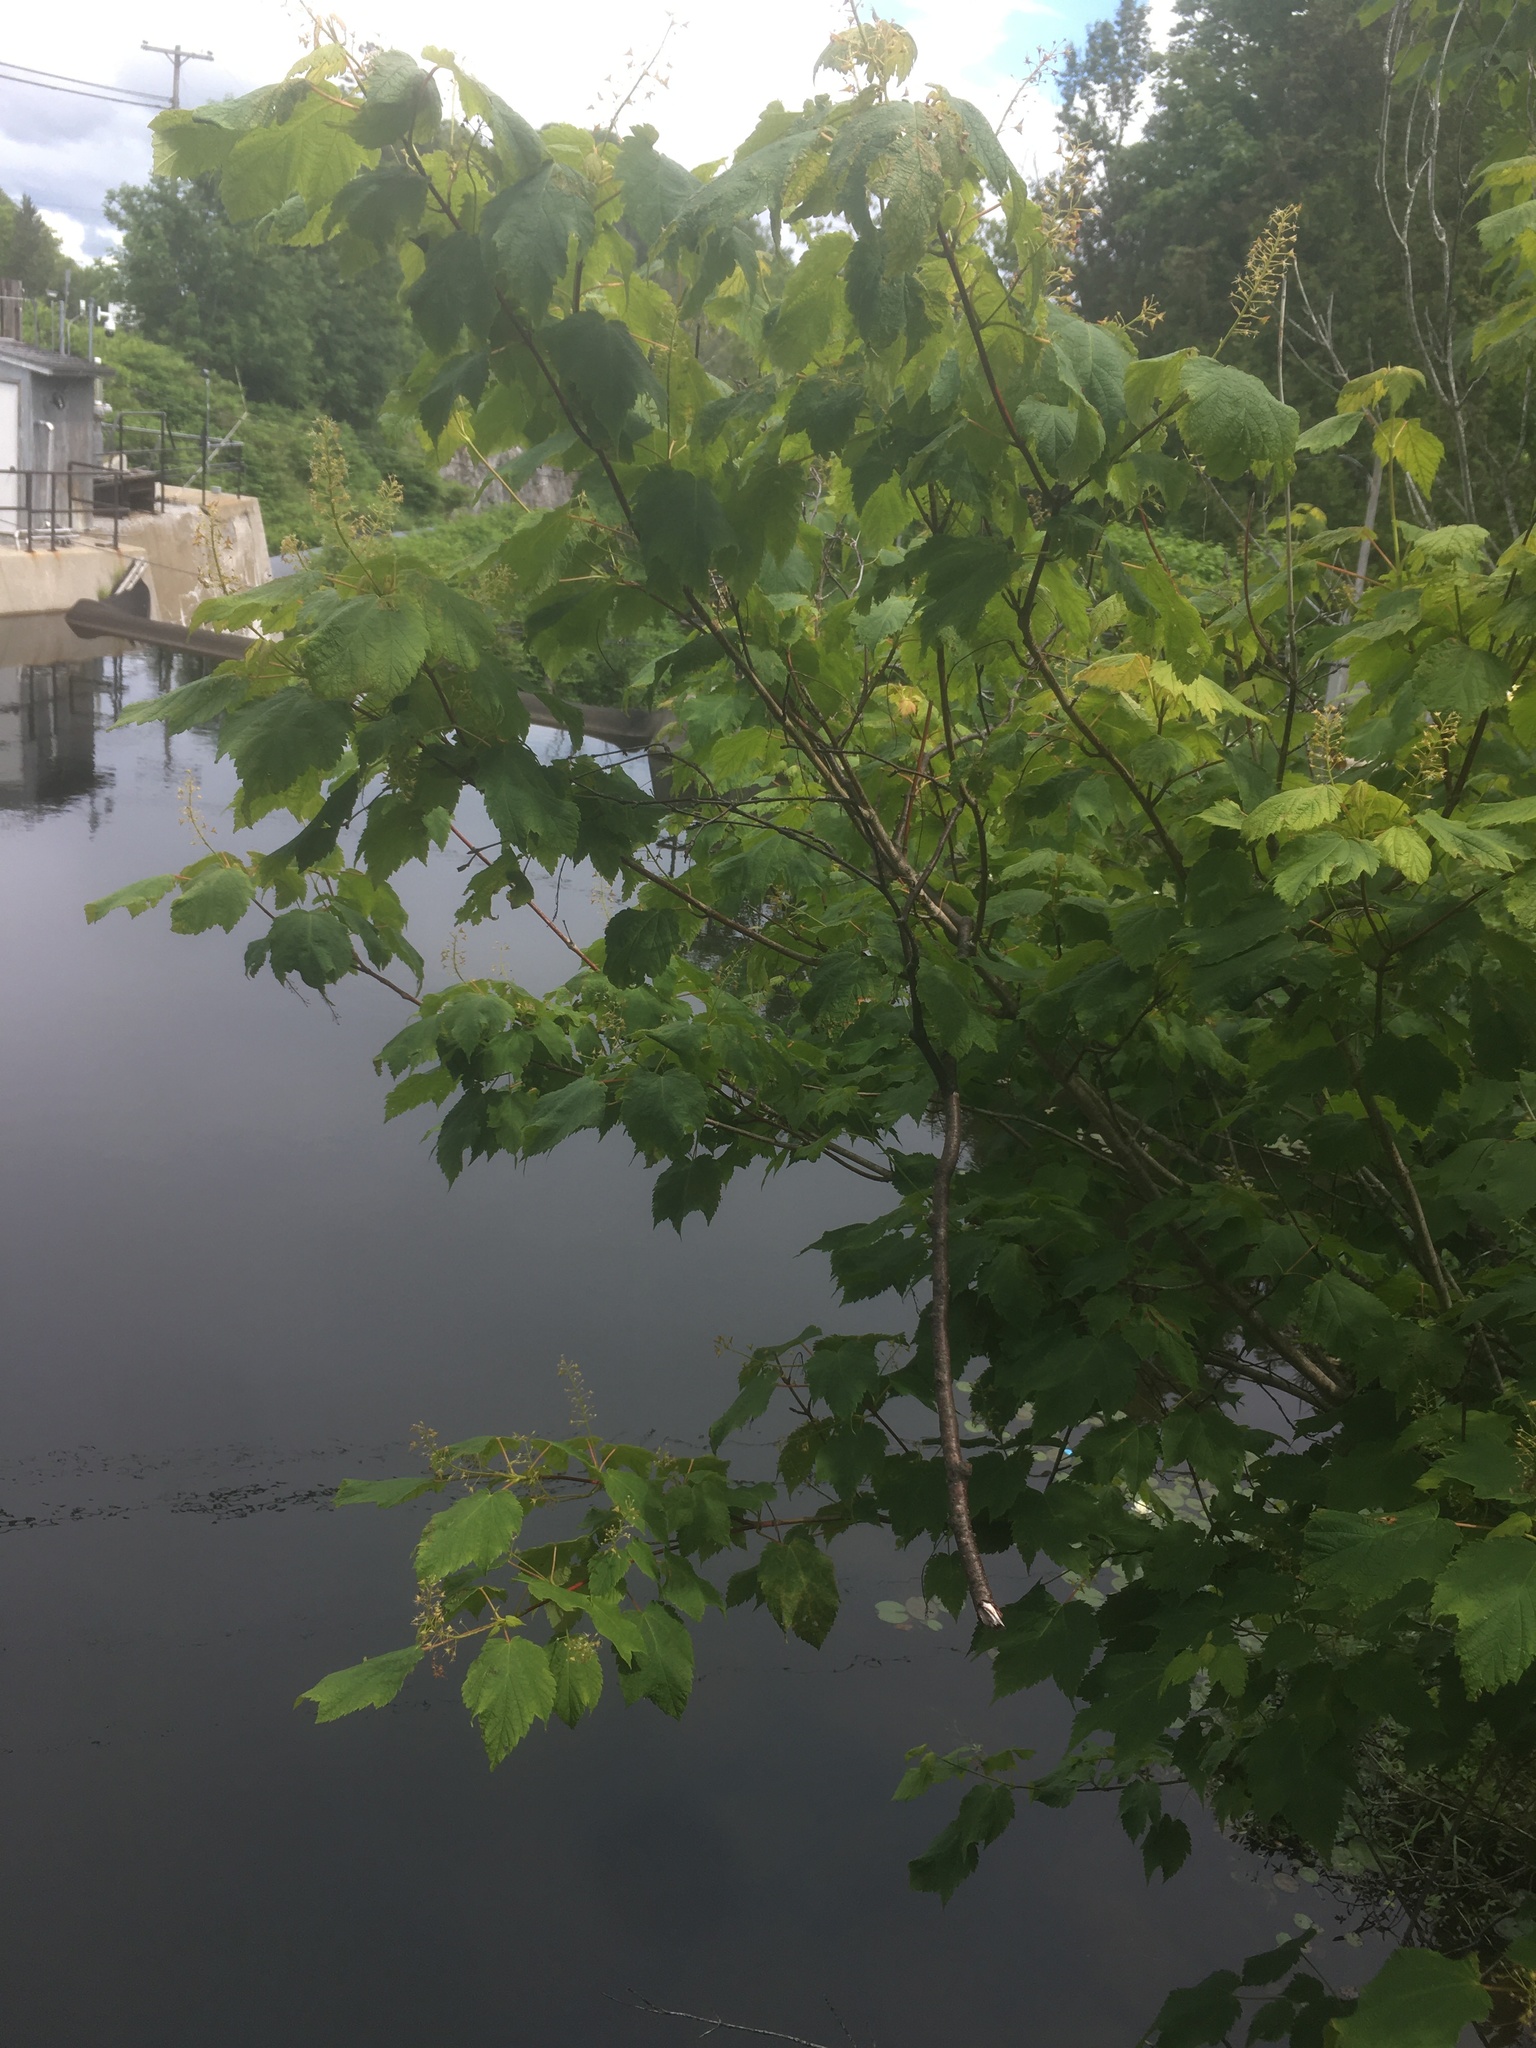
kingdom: Plantae
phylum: Tracheophyta
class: Magnoliopsida
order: Sapindales
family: Sapindaceae
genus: Acer
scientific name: Acer spicatum
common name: Mountain maple
